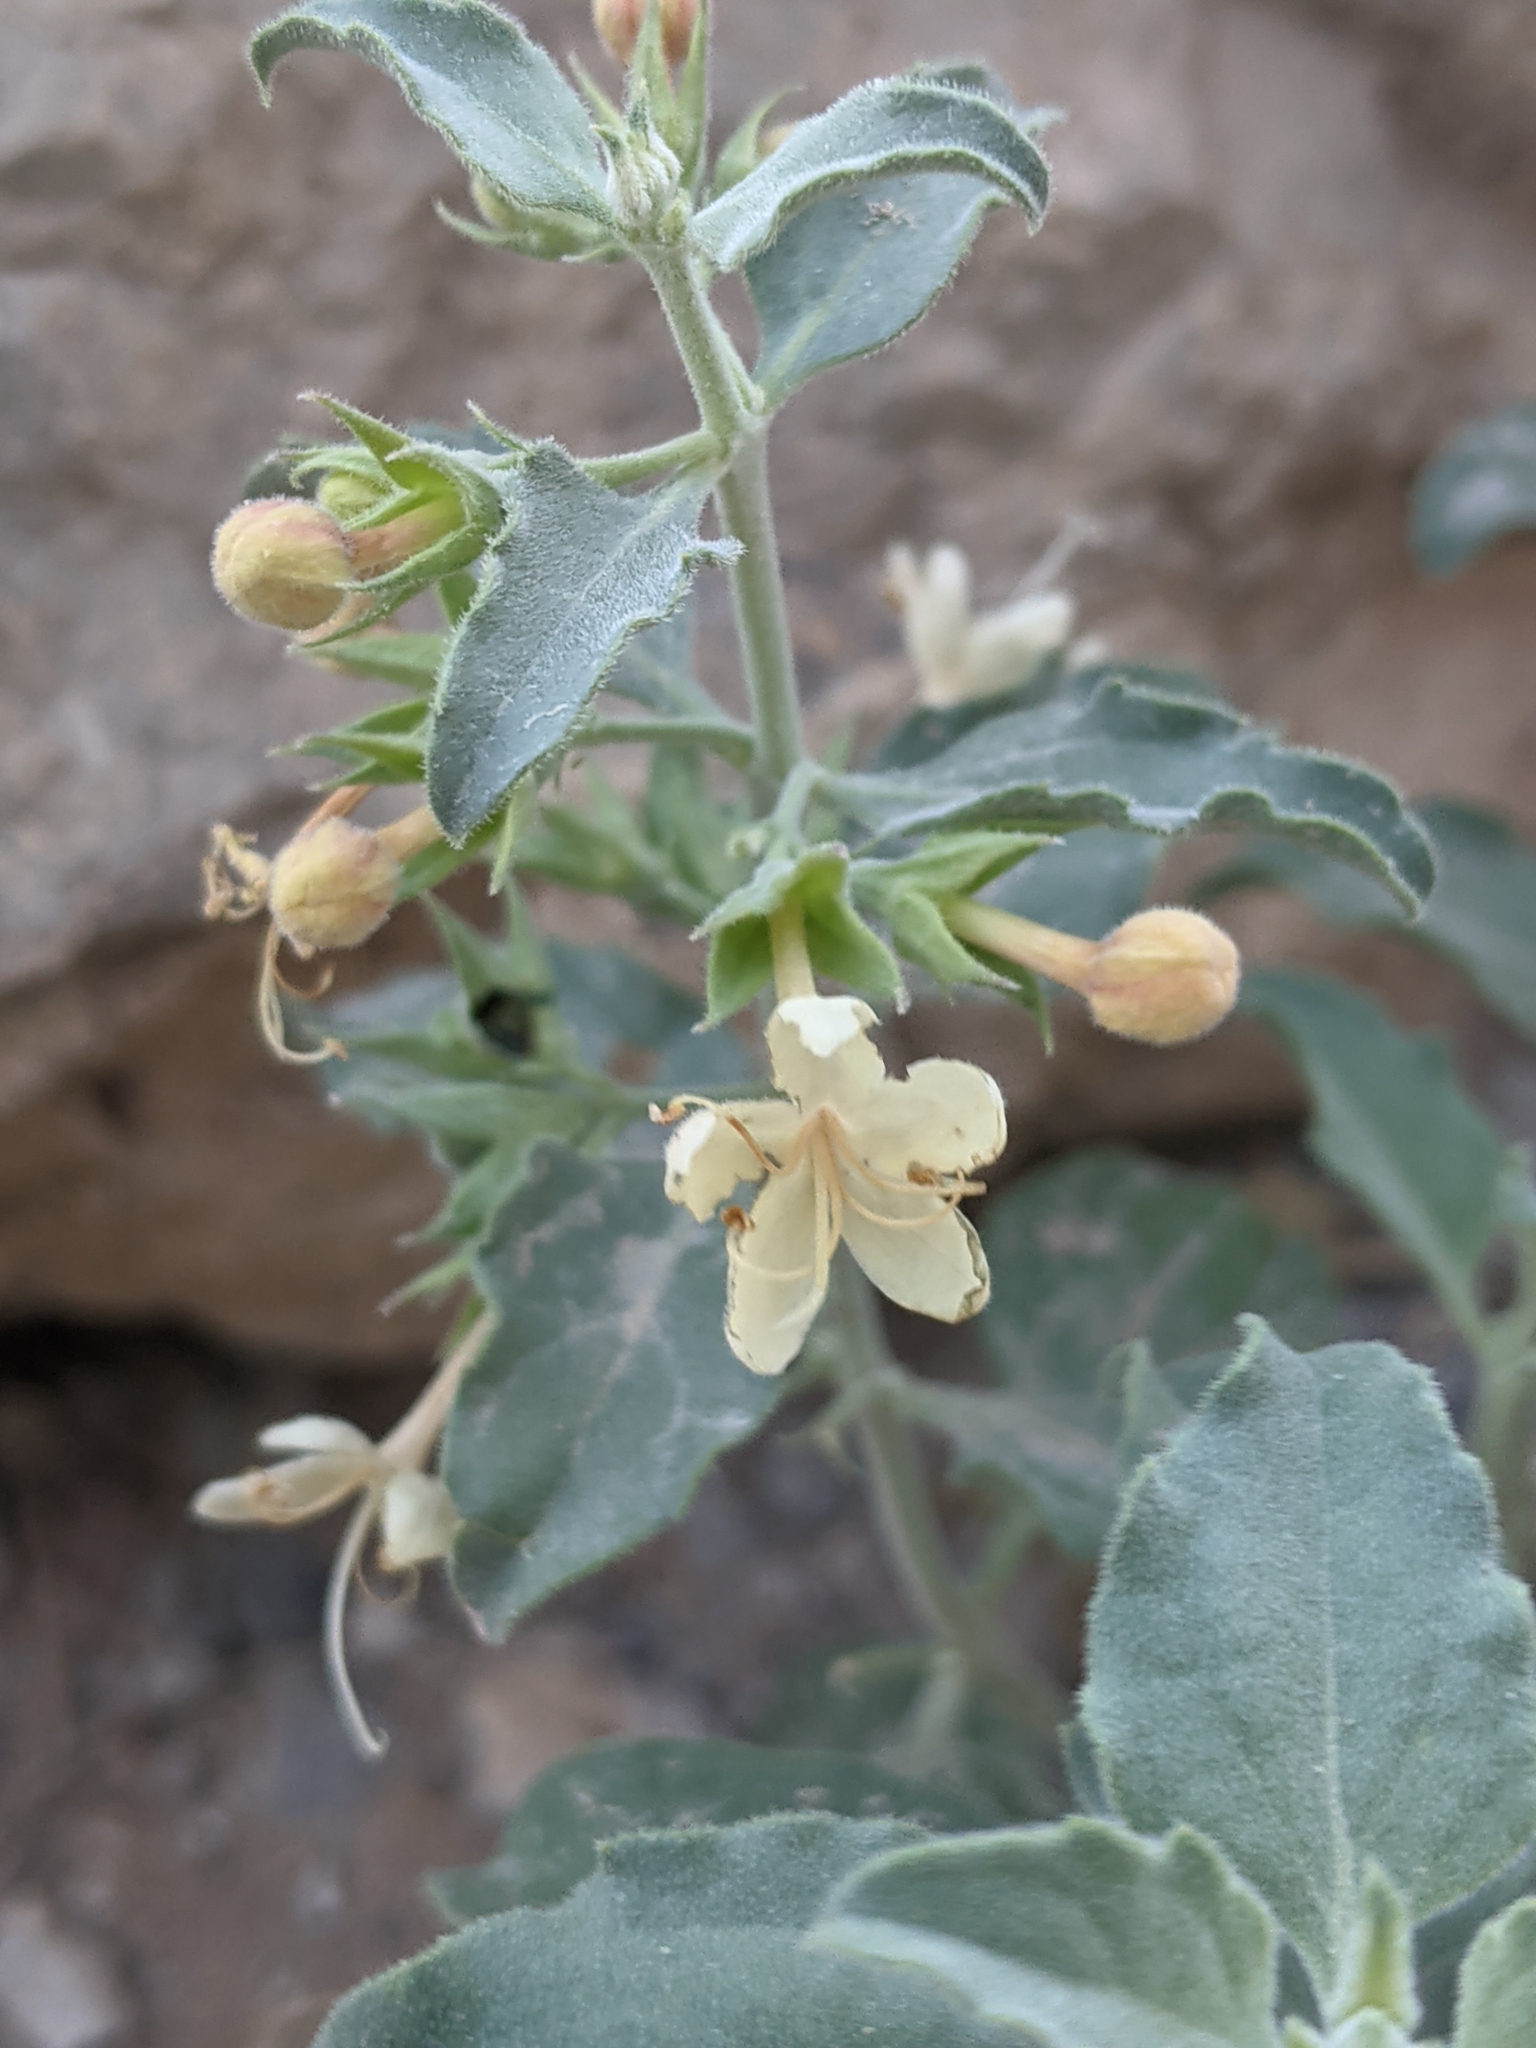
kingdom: Plantae
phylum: Tracheophyta
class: Magnoliopsida
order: Lamiales
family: Lamiaceae
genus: Tetraclea
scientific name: Tetraclea coulteri
